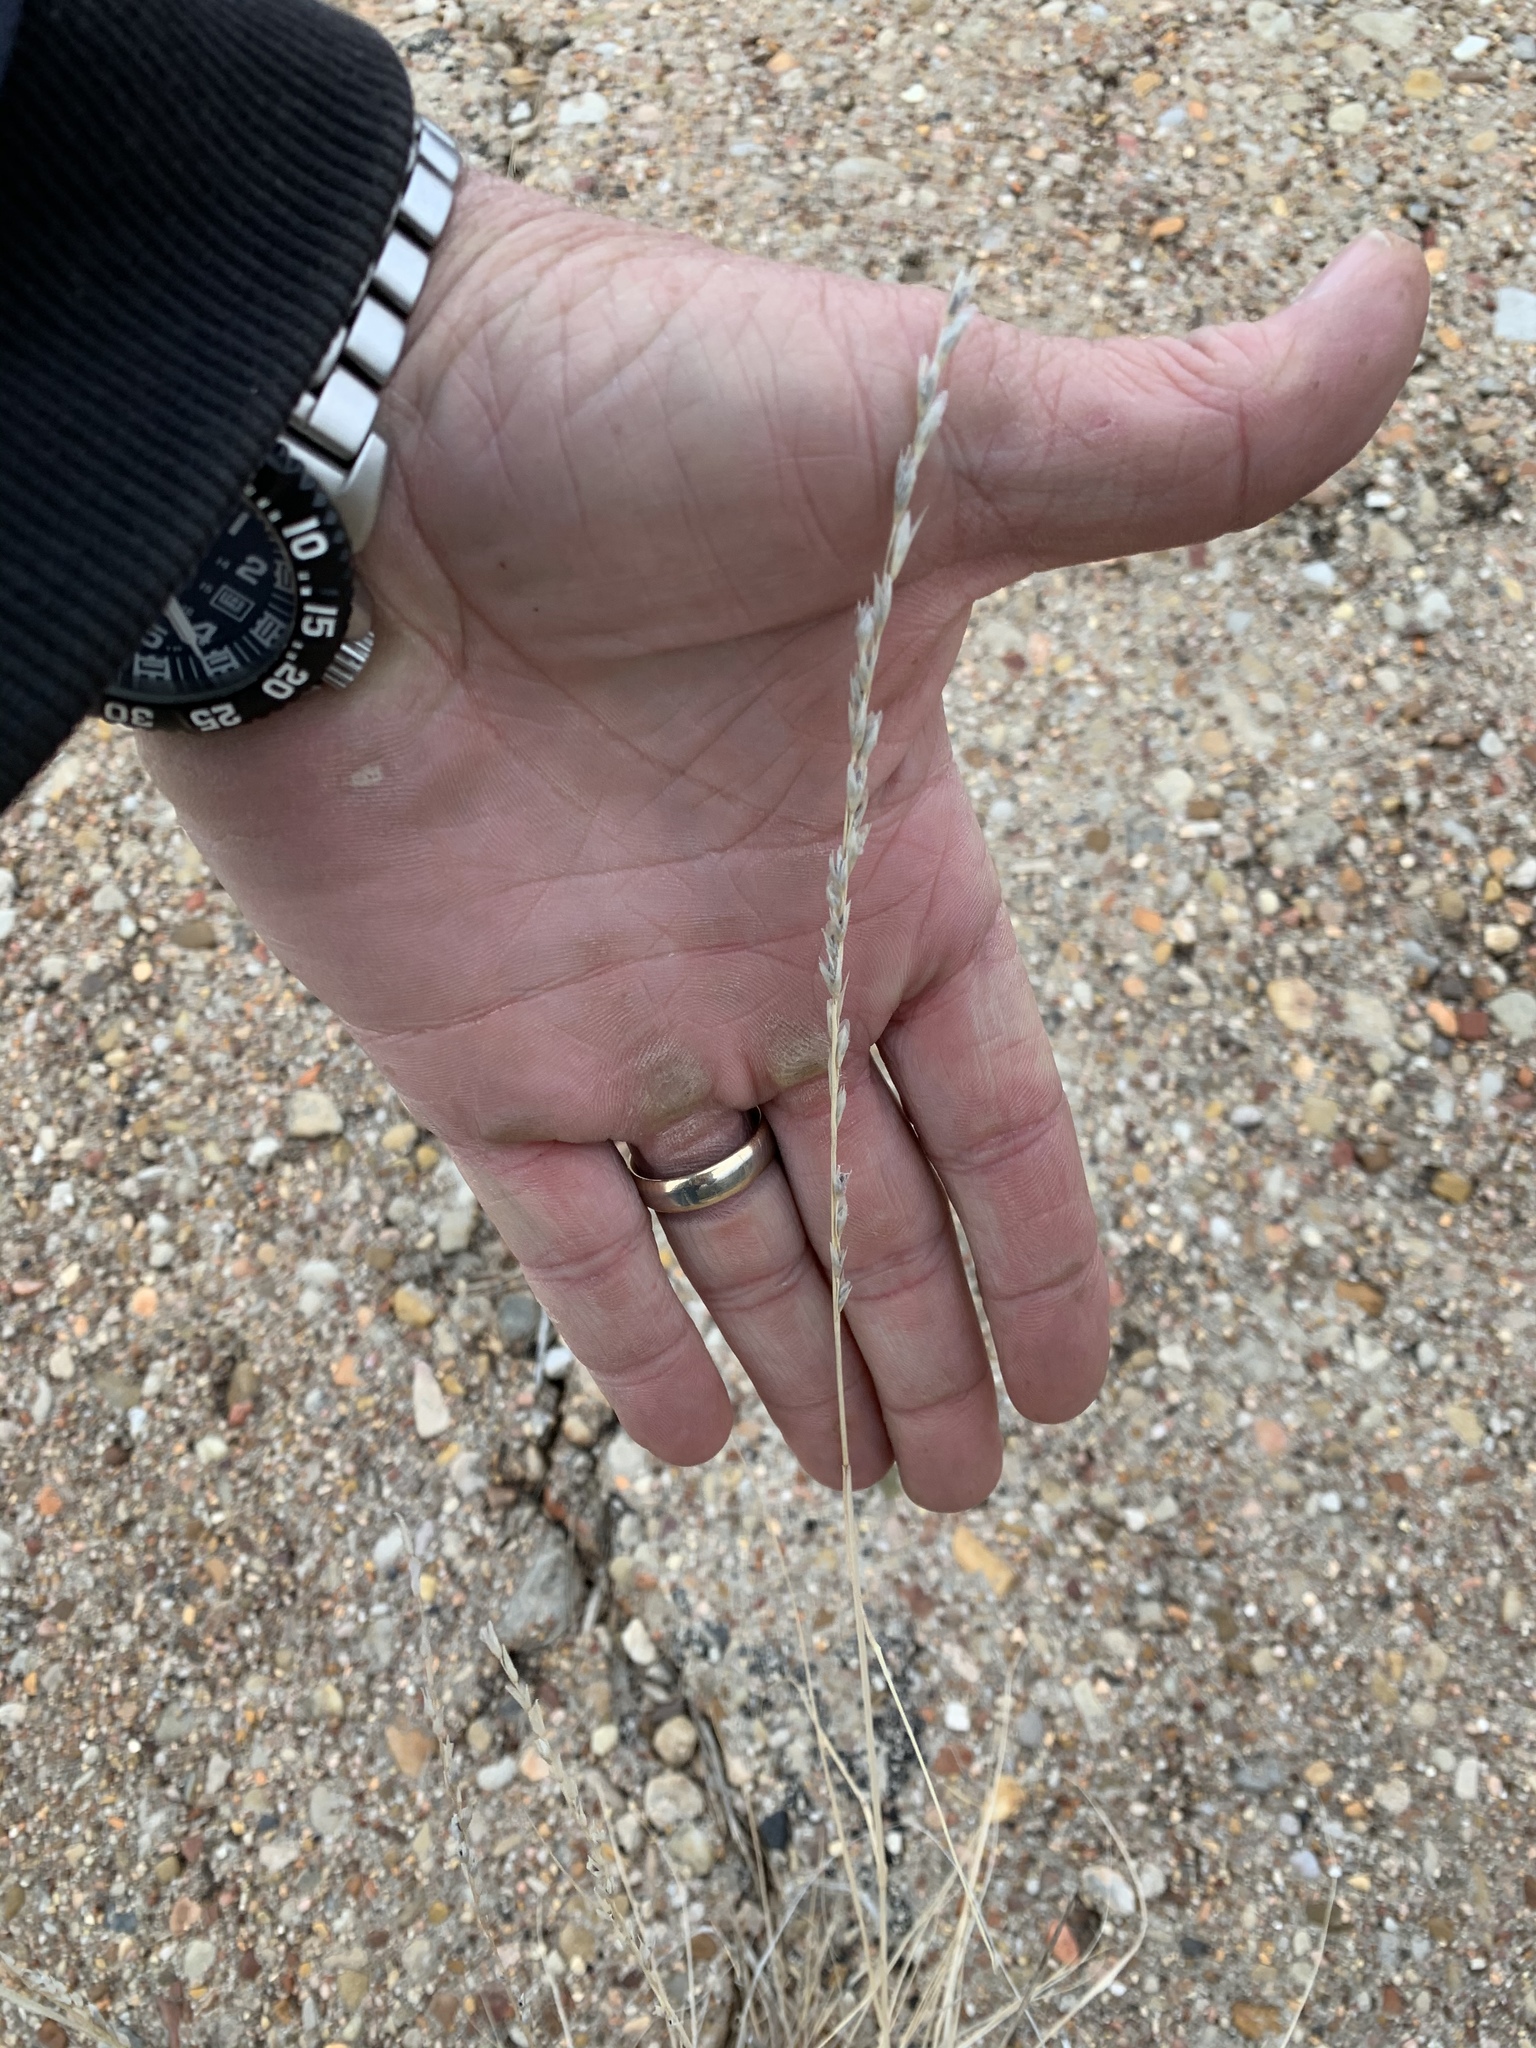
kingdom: Plantae
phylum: Tracheophyta
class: Liliopsida
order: Poales
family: Poaceae
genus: Tridentopsis
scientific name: Tridentopsis mutica
